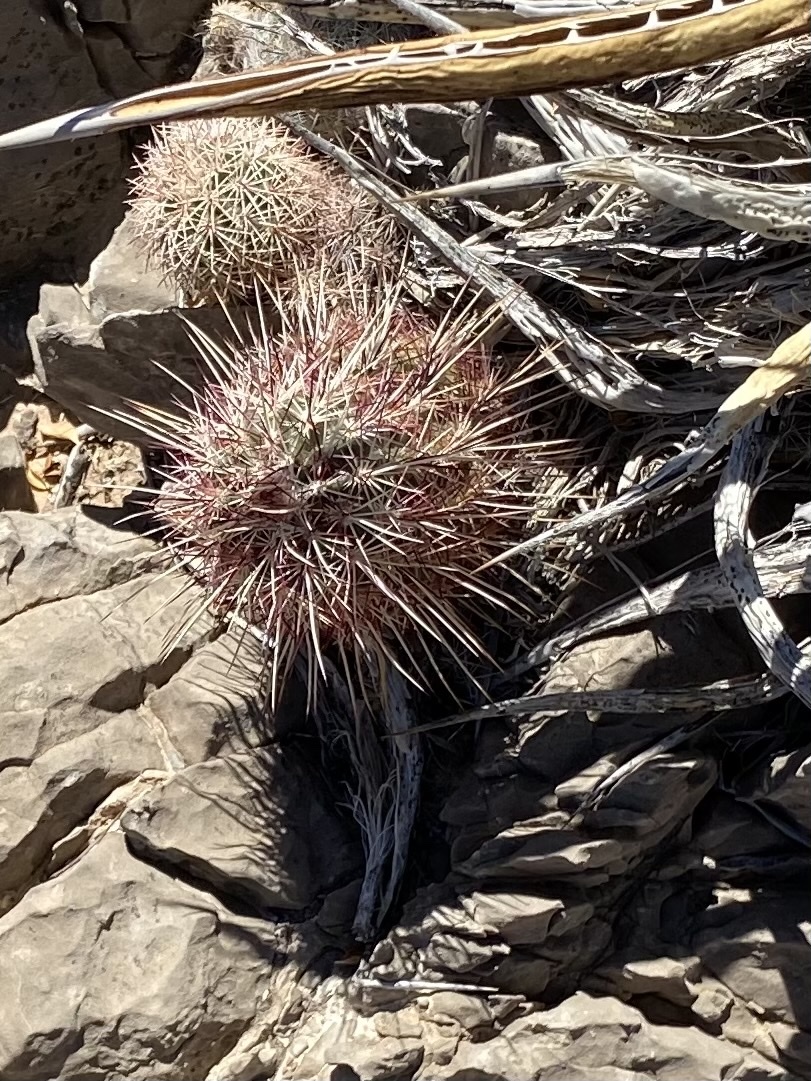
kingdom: Plantae
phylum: Tracheophyta
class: Magnoliopsida
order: Caryophyllales
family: Cactaceae
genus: Echinocereus
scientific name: Echinocereus viridiflorus
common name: Nylon hedgehog cactus
